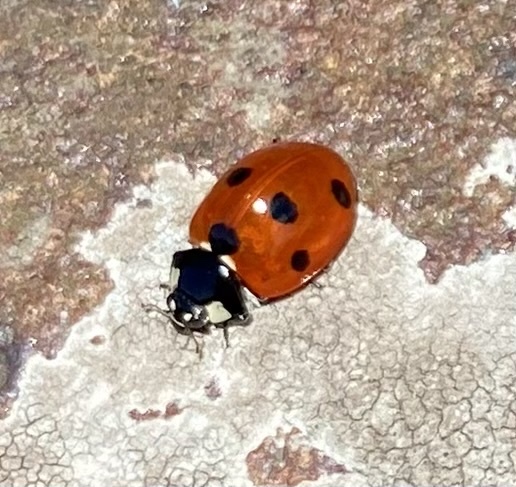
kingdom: Animalia
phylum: Arthropoda
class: Insecta
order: Coleoptera
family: Coccinellidae
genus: Coccinella
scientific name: Coccinella septempunctata
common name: Sevenspotted lady beetle
